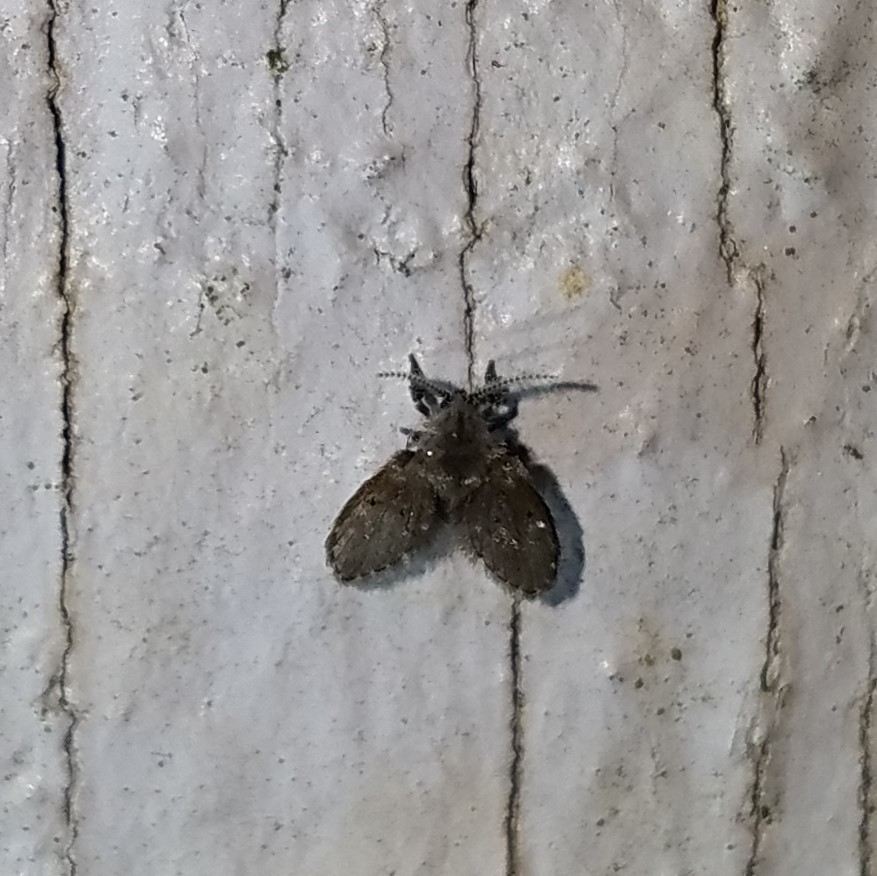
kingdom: Animalia
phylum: Arthropoda
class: Insecta
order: Diptera
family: Psychodidae
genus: Clogmia
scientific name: Clogmia albipunctatus
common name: White-spotted moth fly
